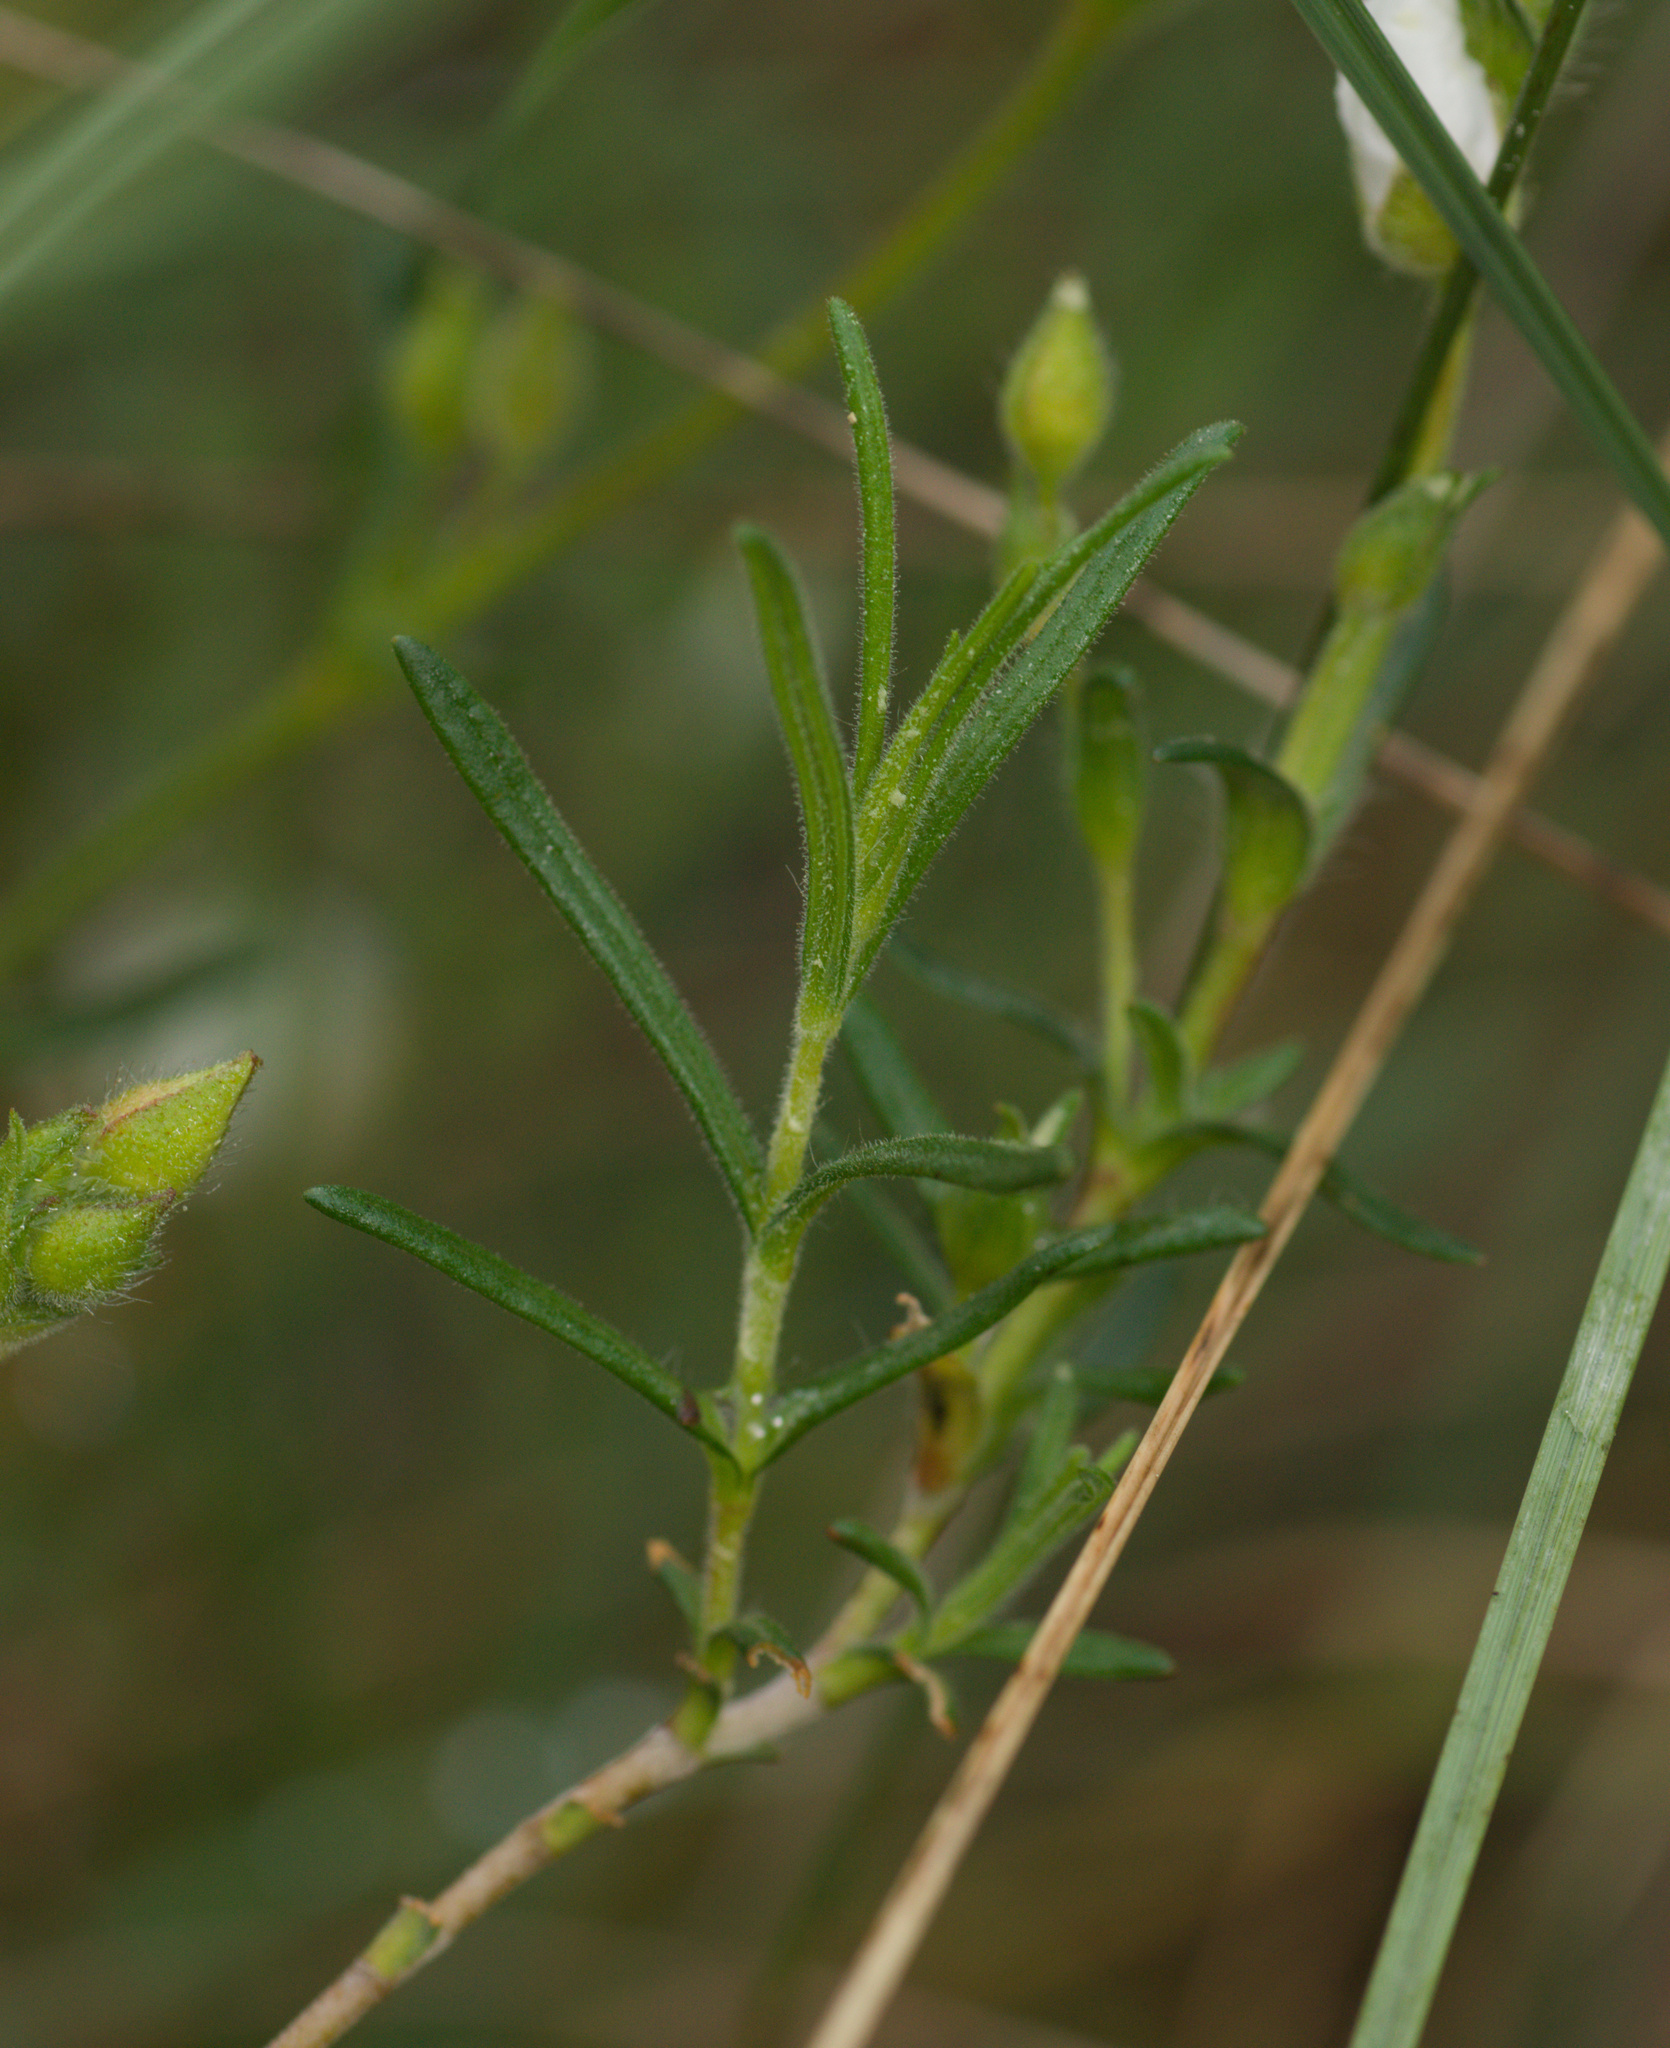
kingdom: Plantae
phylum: Tracheophyta
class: Magnoliopsida
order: Malvales
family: Cistaceae
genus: Halimium
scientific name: Halimium umbellatum
